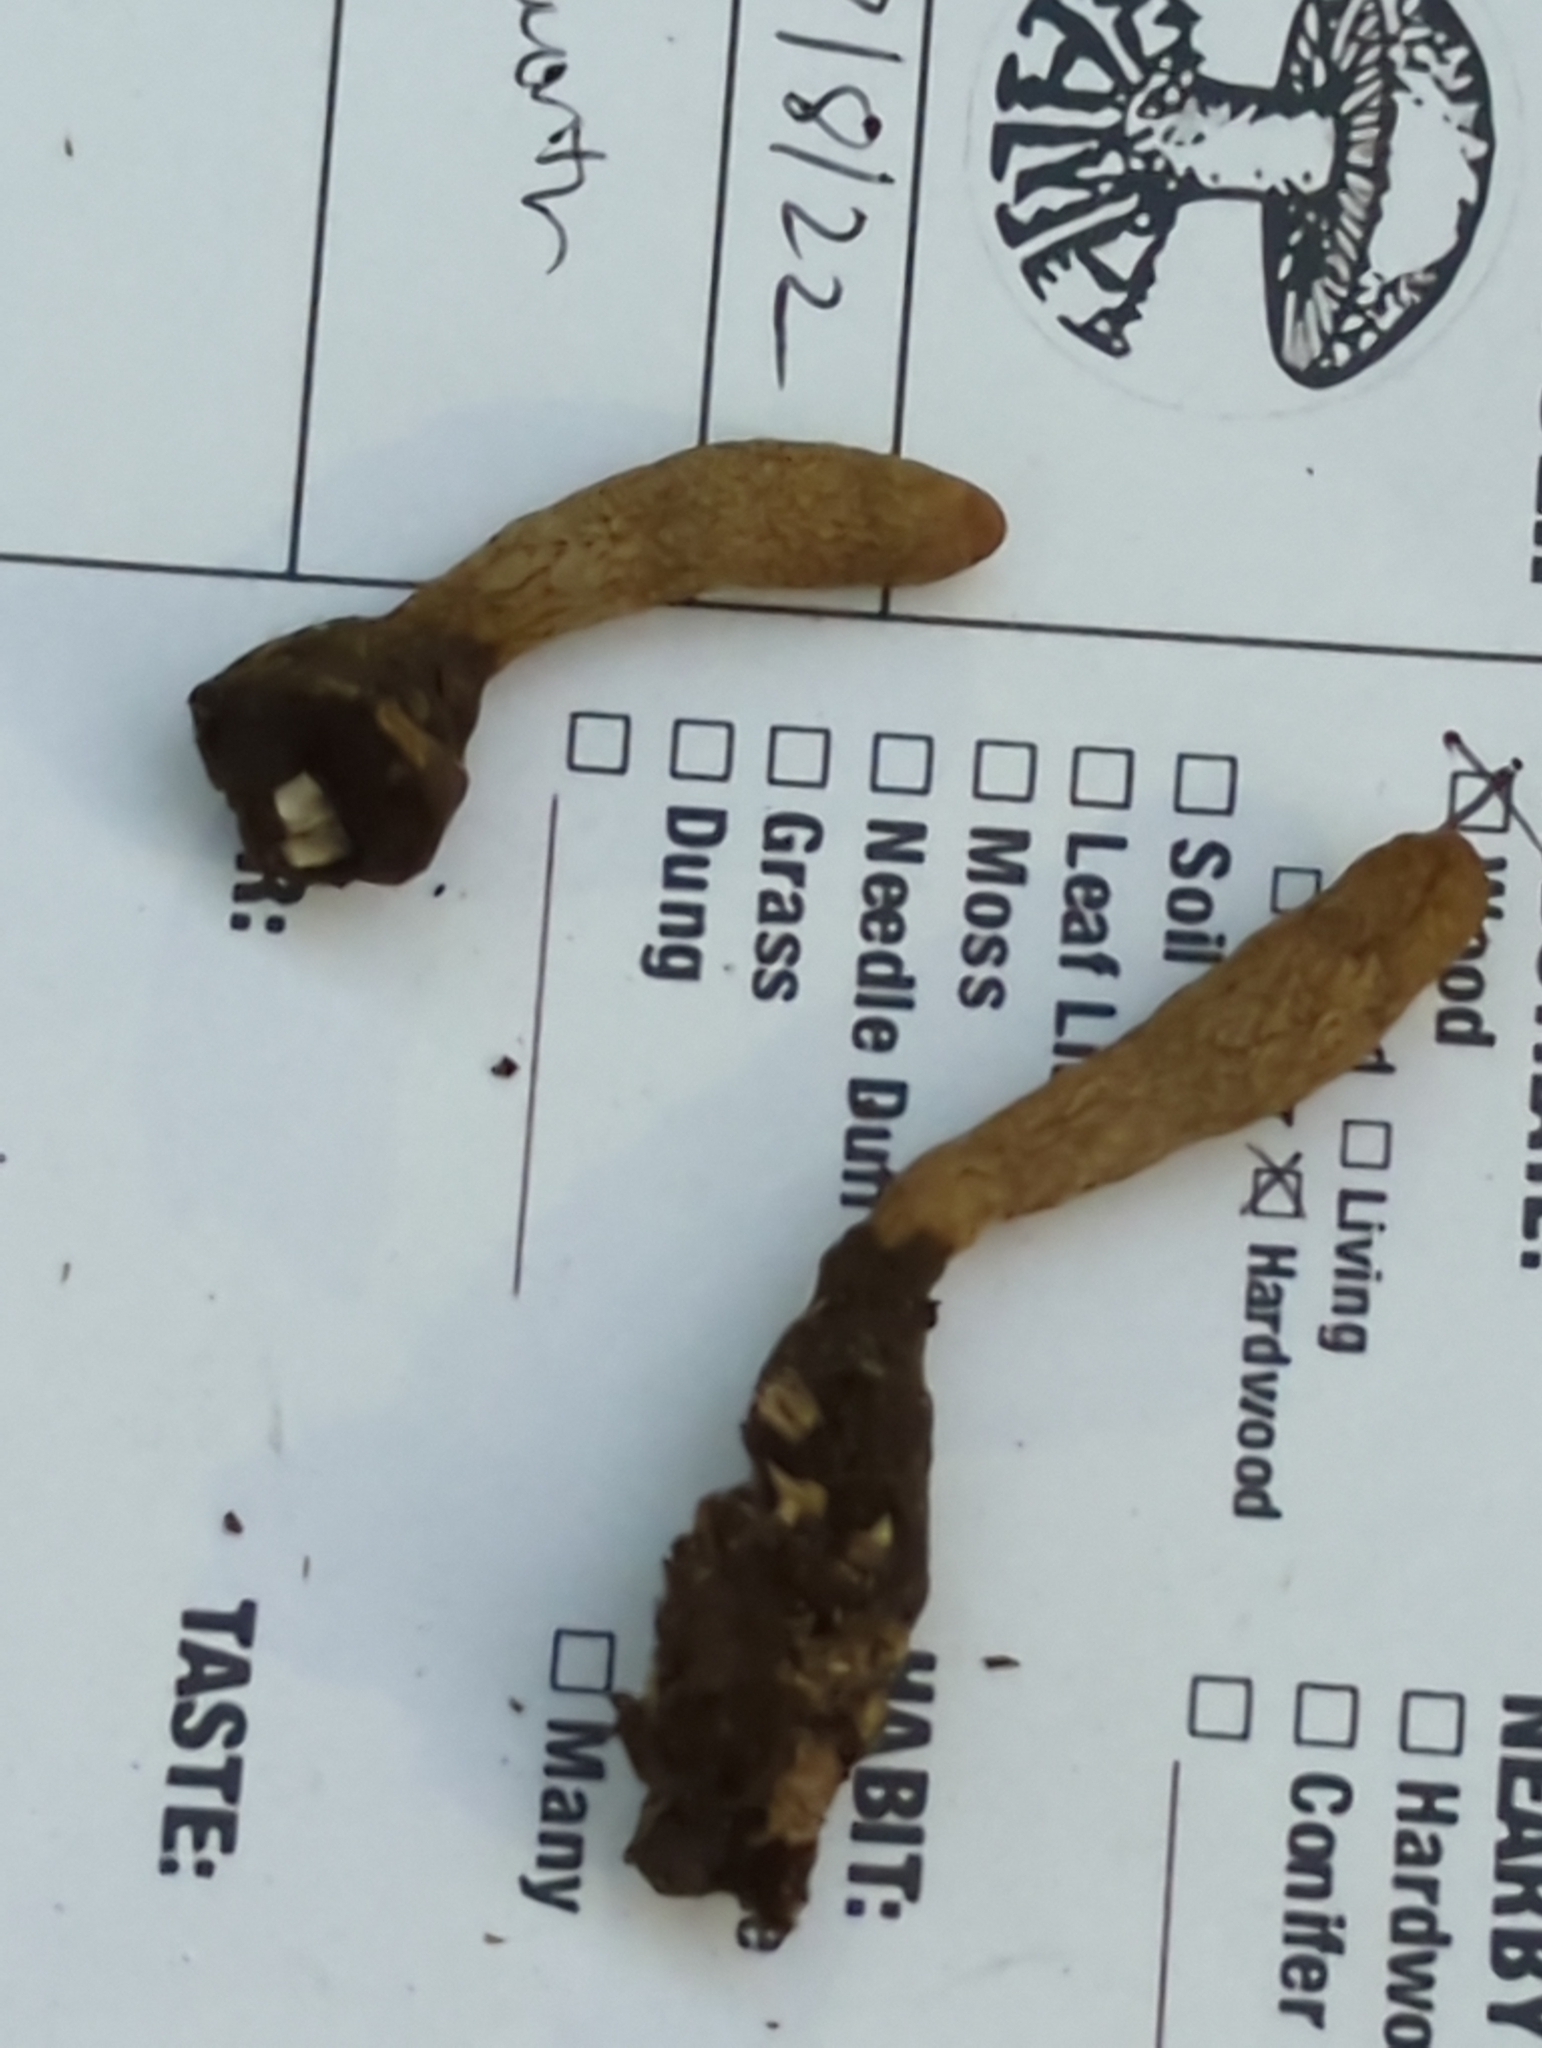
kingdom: Fungi
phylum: Ascomycota
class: Sordariomycetes
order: Xylariales
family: Xylariaceae
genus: Xylaria
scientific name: Xylaria ellisii
